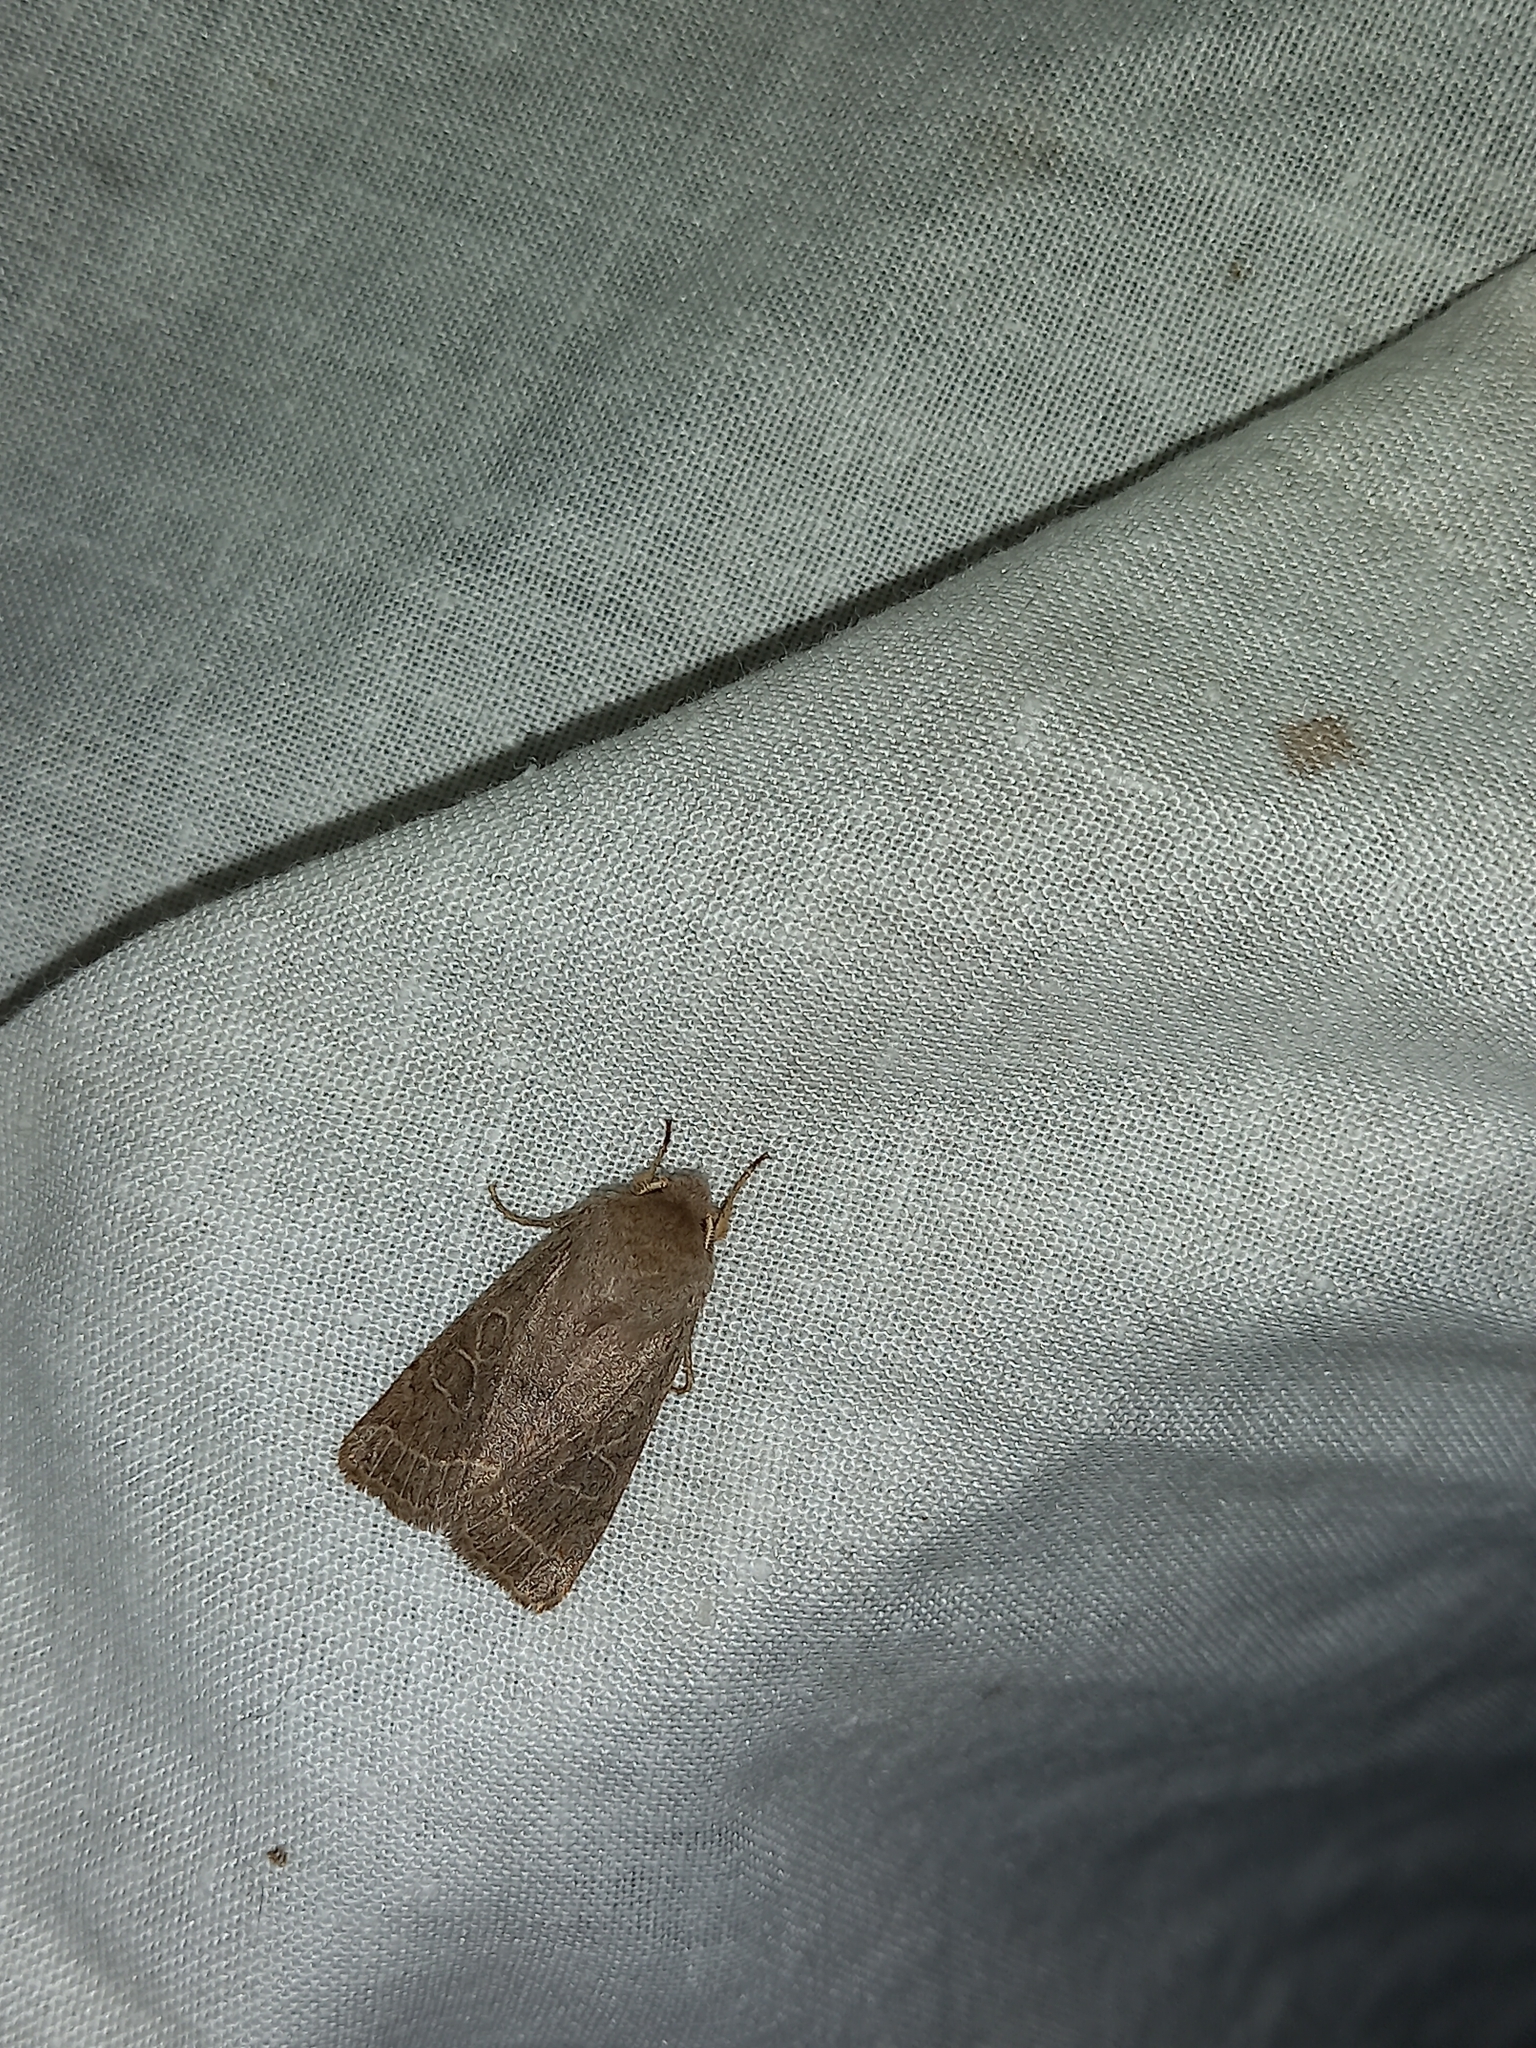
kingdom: Animalia
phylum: Arthropoda
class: Insecta
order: Lepidoptera
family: Noctuidae
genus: Orthosia
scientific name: Orthosia cerasi
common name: Common quaker
